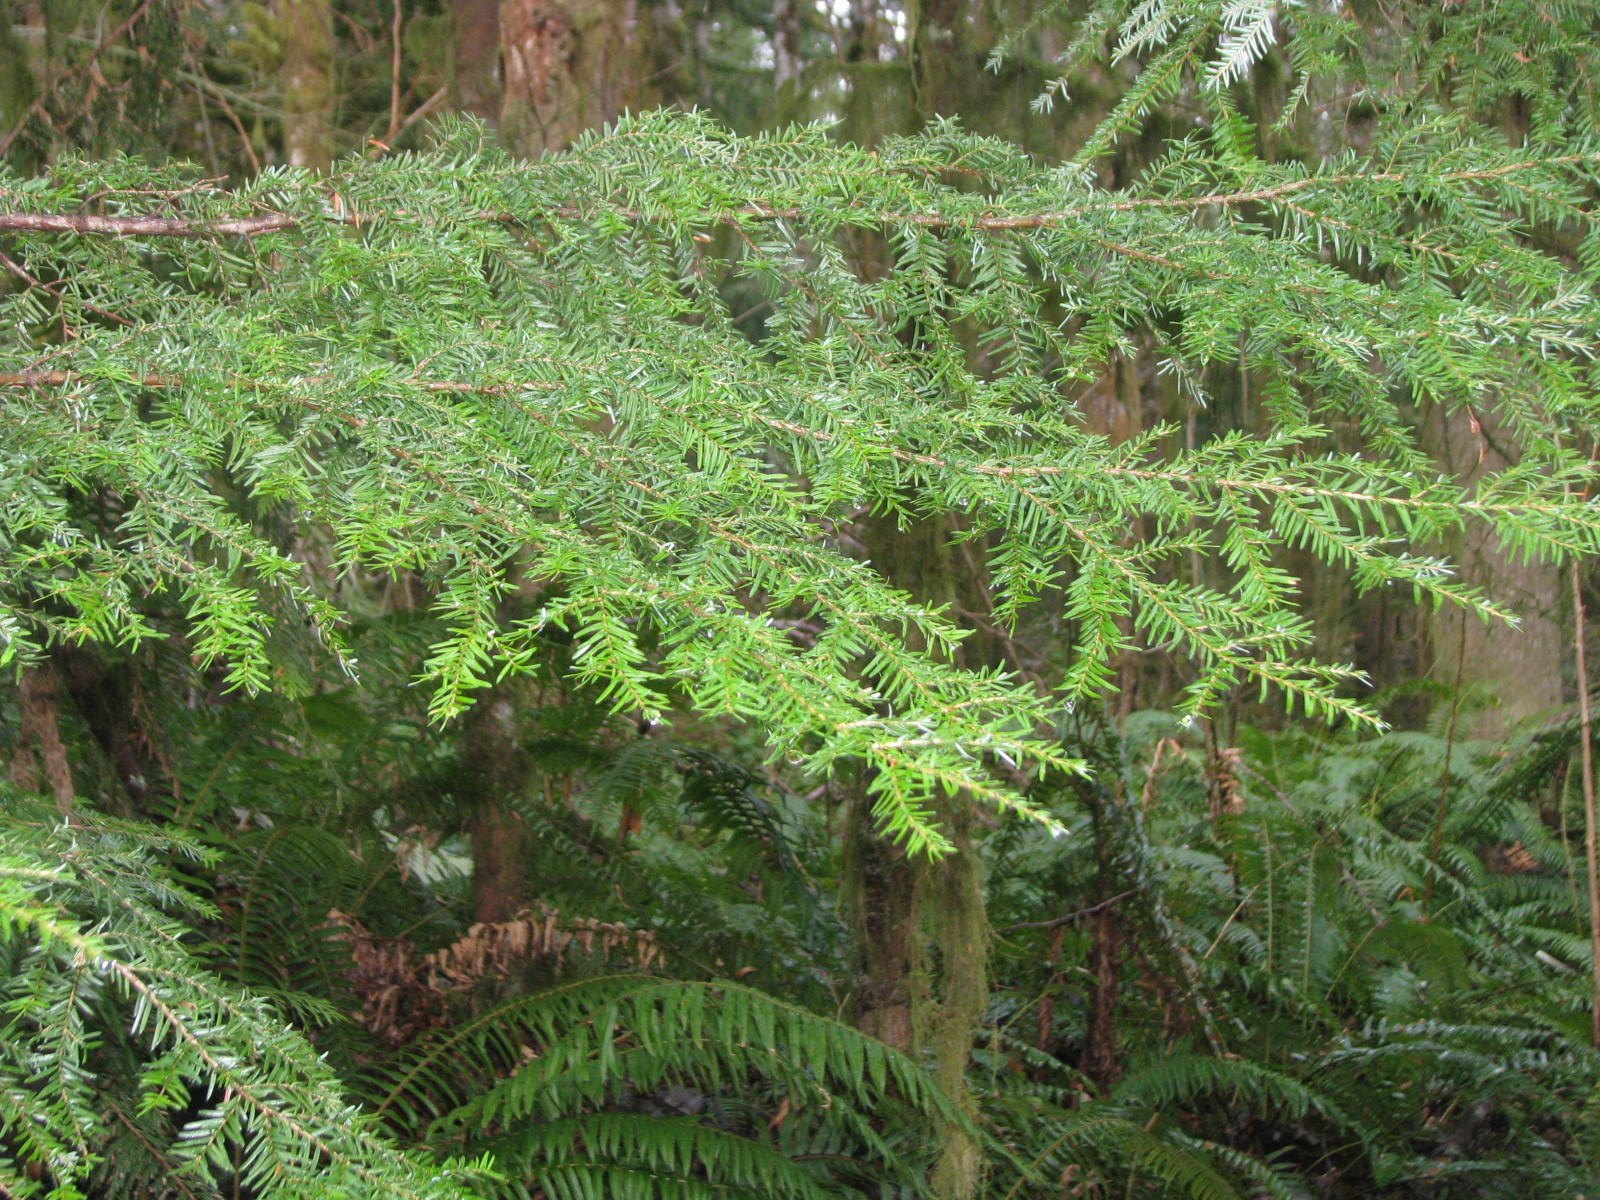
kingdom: Plantae
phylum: Tracheophyta
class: Pinopsida
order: Pinales
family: Pinaceae
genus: Tsuga
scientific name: Tsuga heterophylla
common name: Western hemlock
